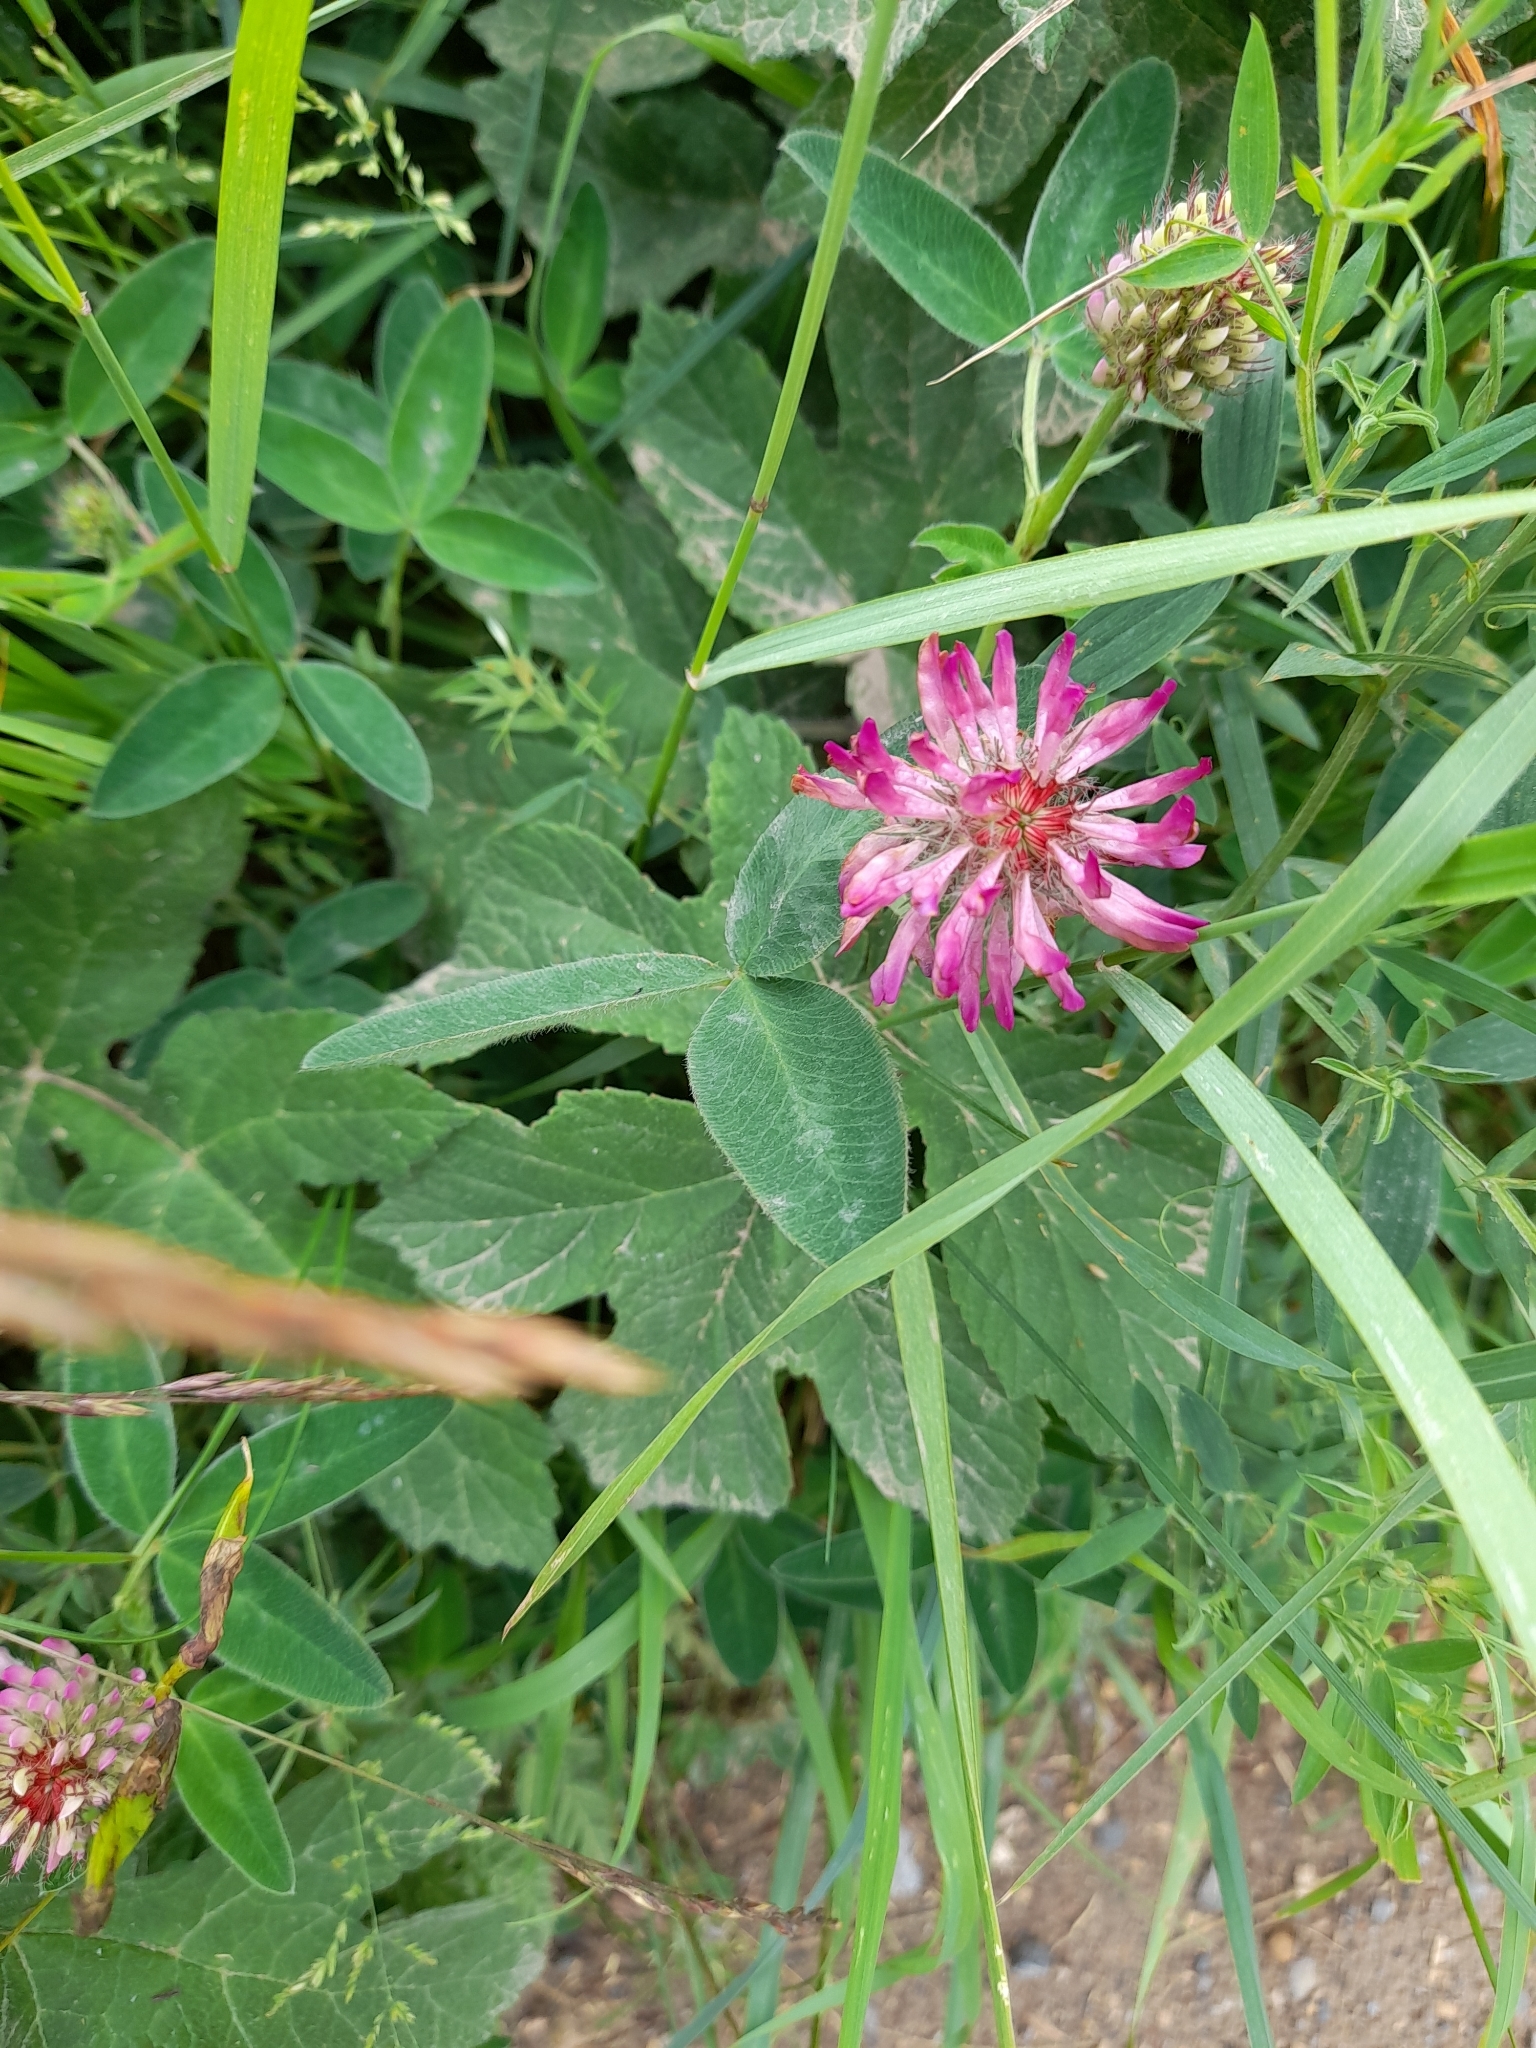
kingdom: Plantae
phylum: Tracheophyta
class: Magnoliopsida
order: Fabales
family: Fabaceae
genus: Trifolium
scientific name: Trifolium medium
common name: Zigzag clover
